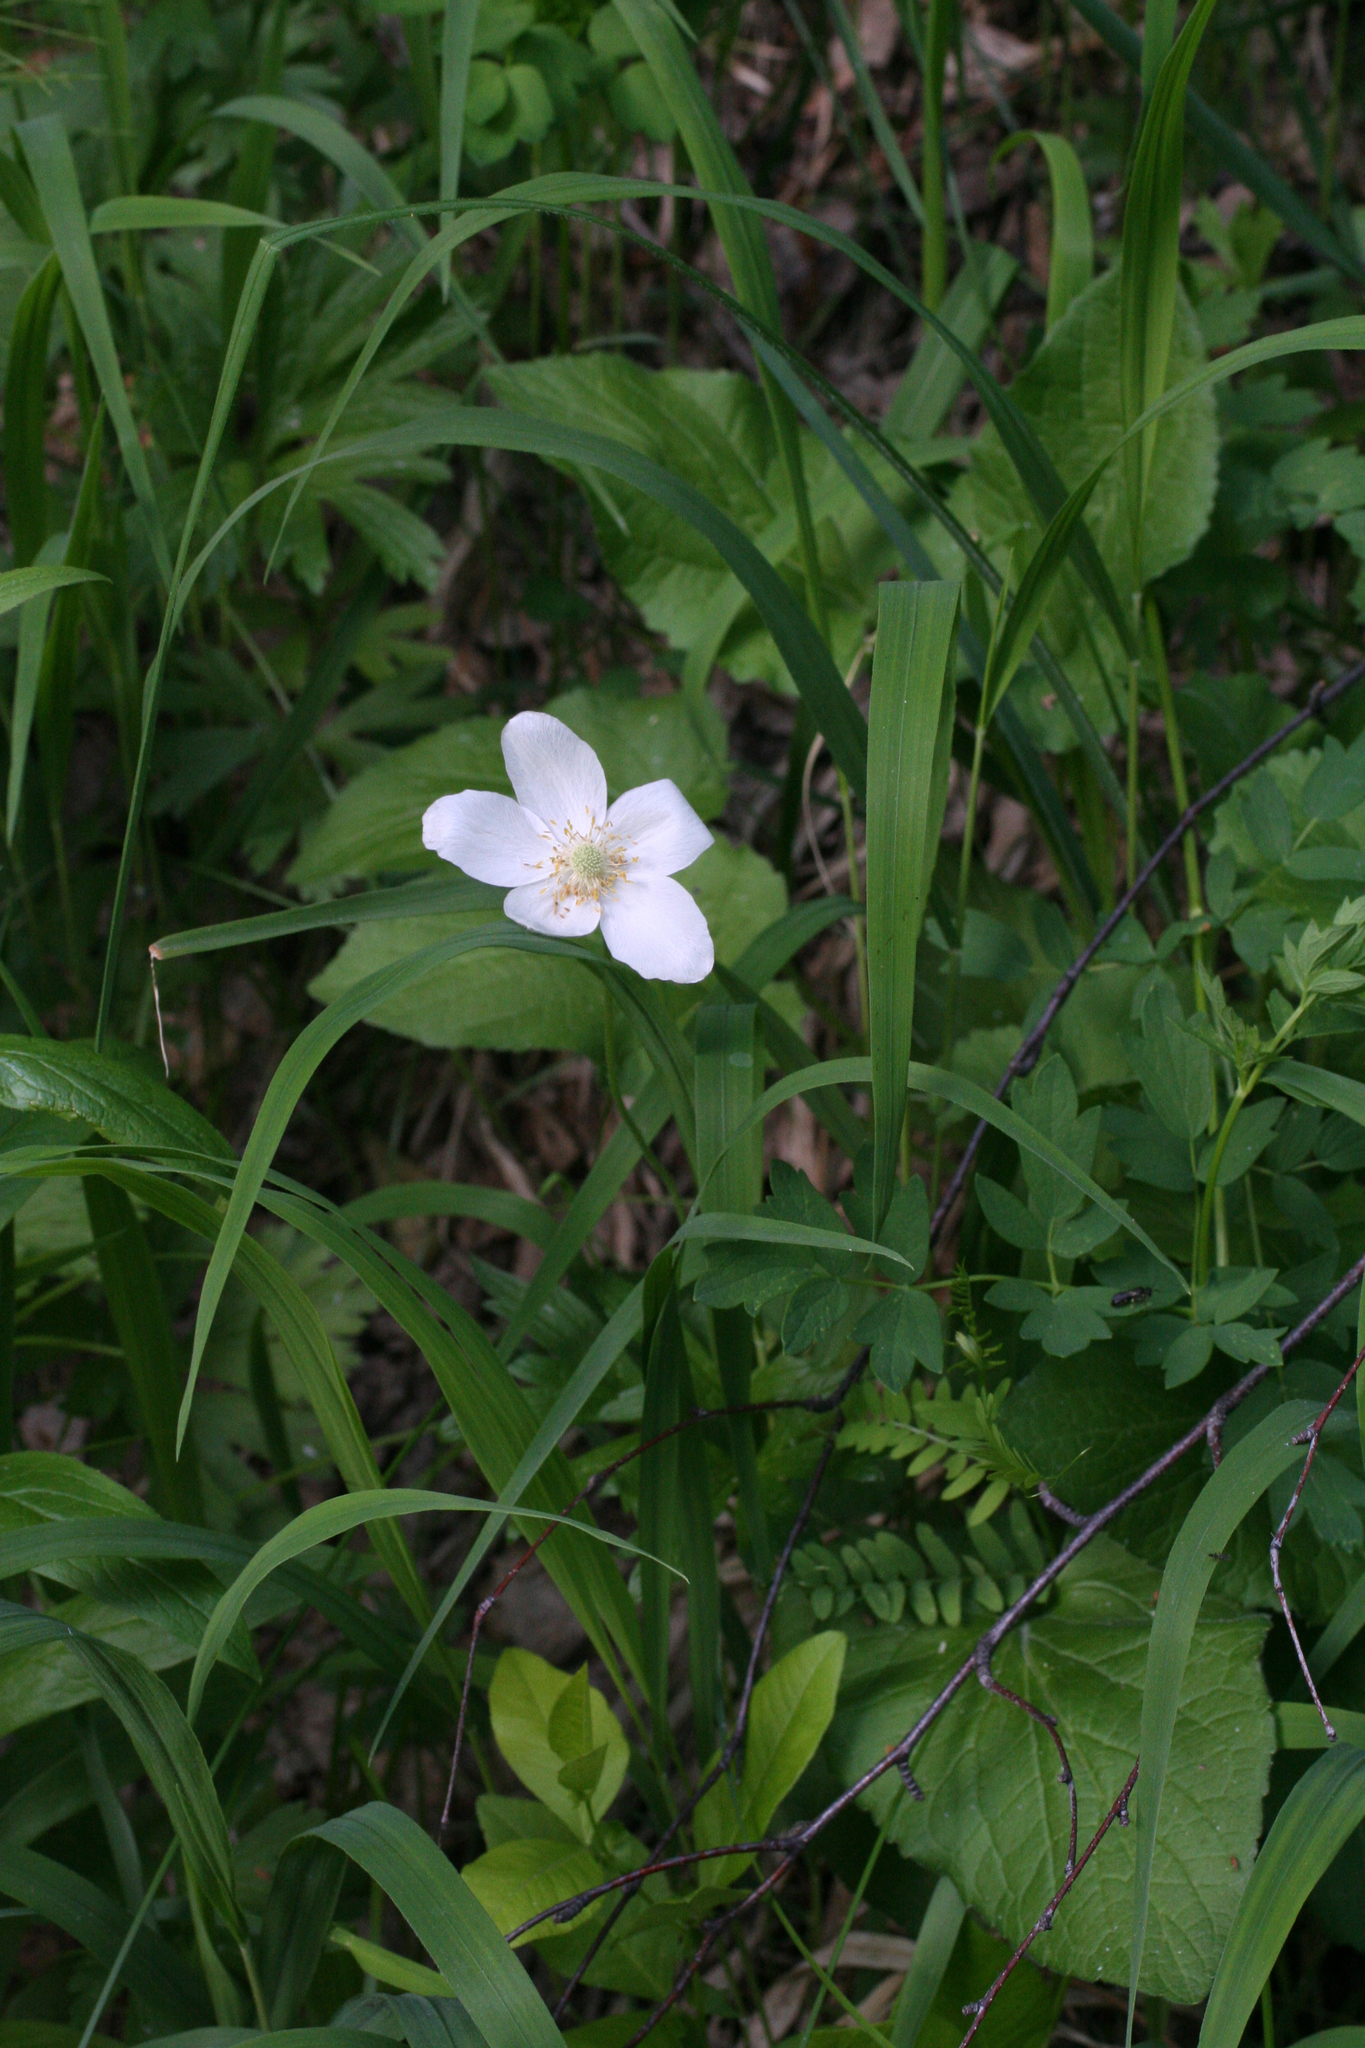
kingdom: Plantae
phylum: Tracheophyta
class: Magnoliopsida
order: Ranunculales
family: Ranunculaceae
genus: Anemone
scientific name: Anemone sylvestris
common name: Snowdrop anemone
